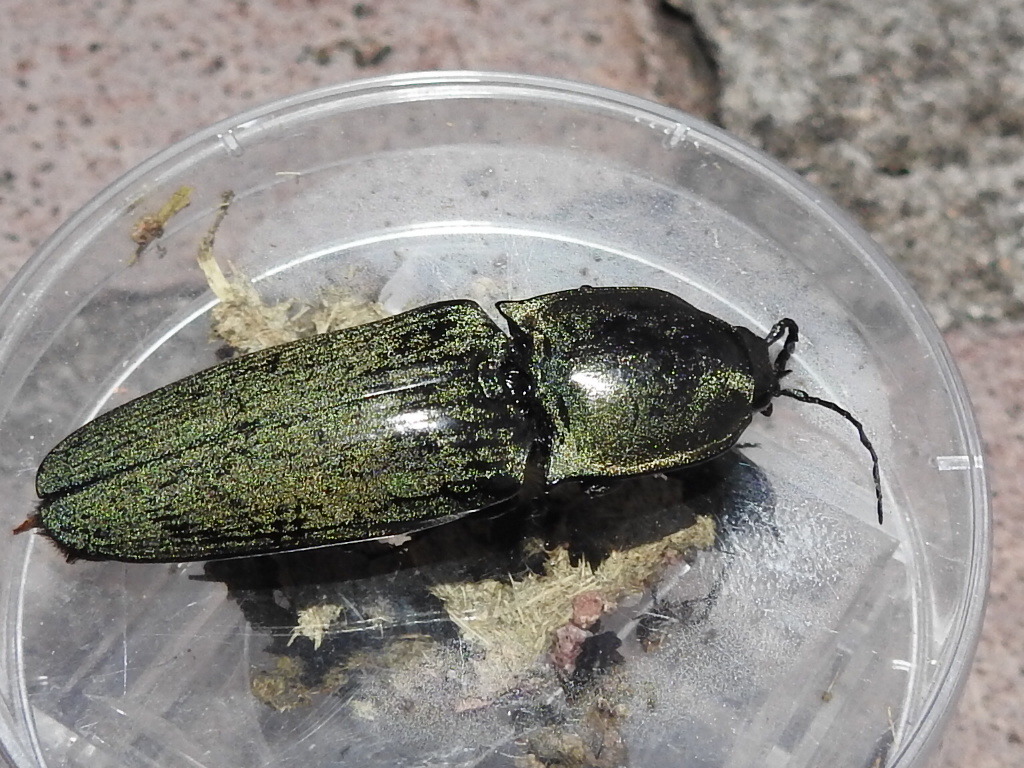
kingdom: Animalia
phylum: Arthropoda
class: Insecta
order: Coleoptera
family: Elateridae
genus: Chalcolepidius
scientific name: Chalcolepidius
